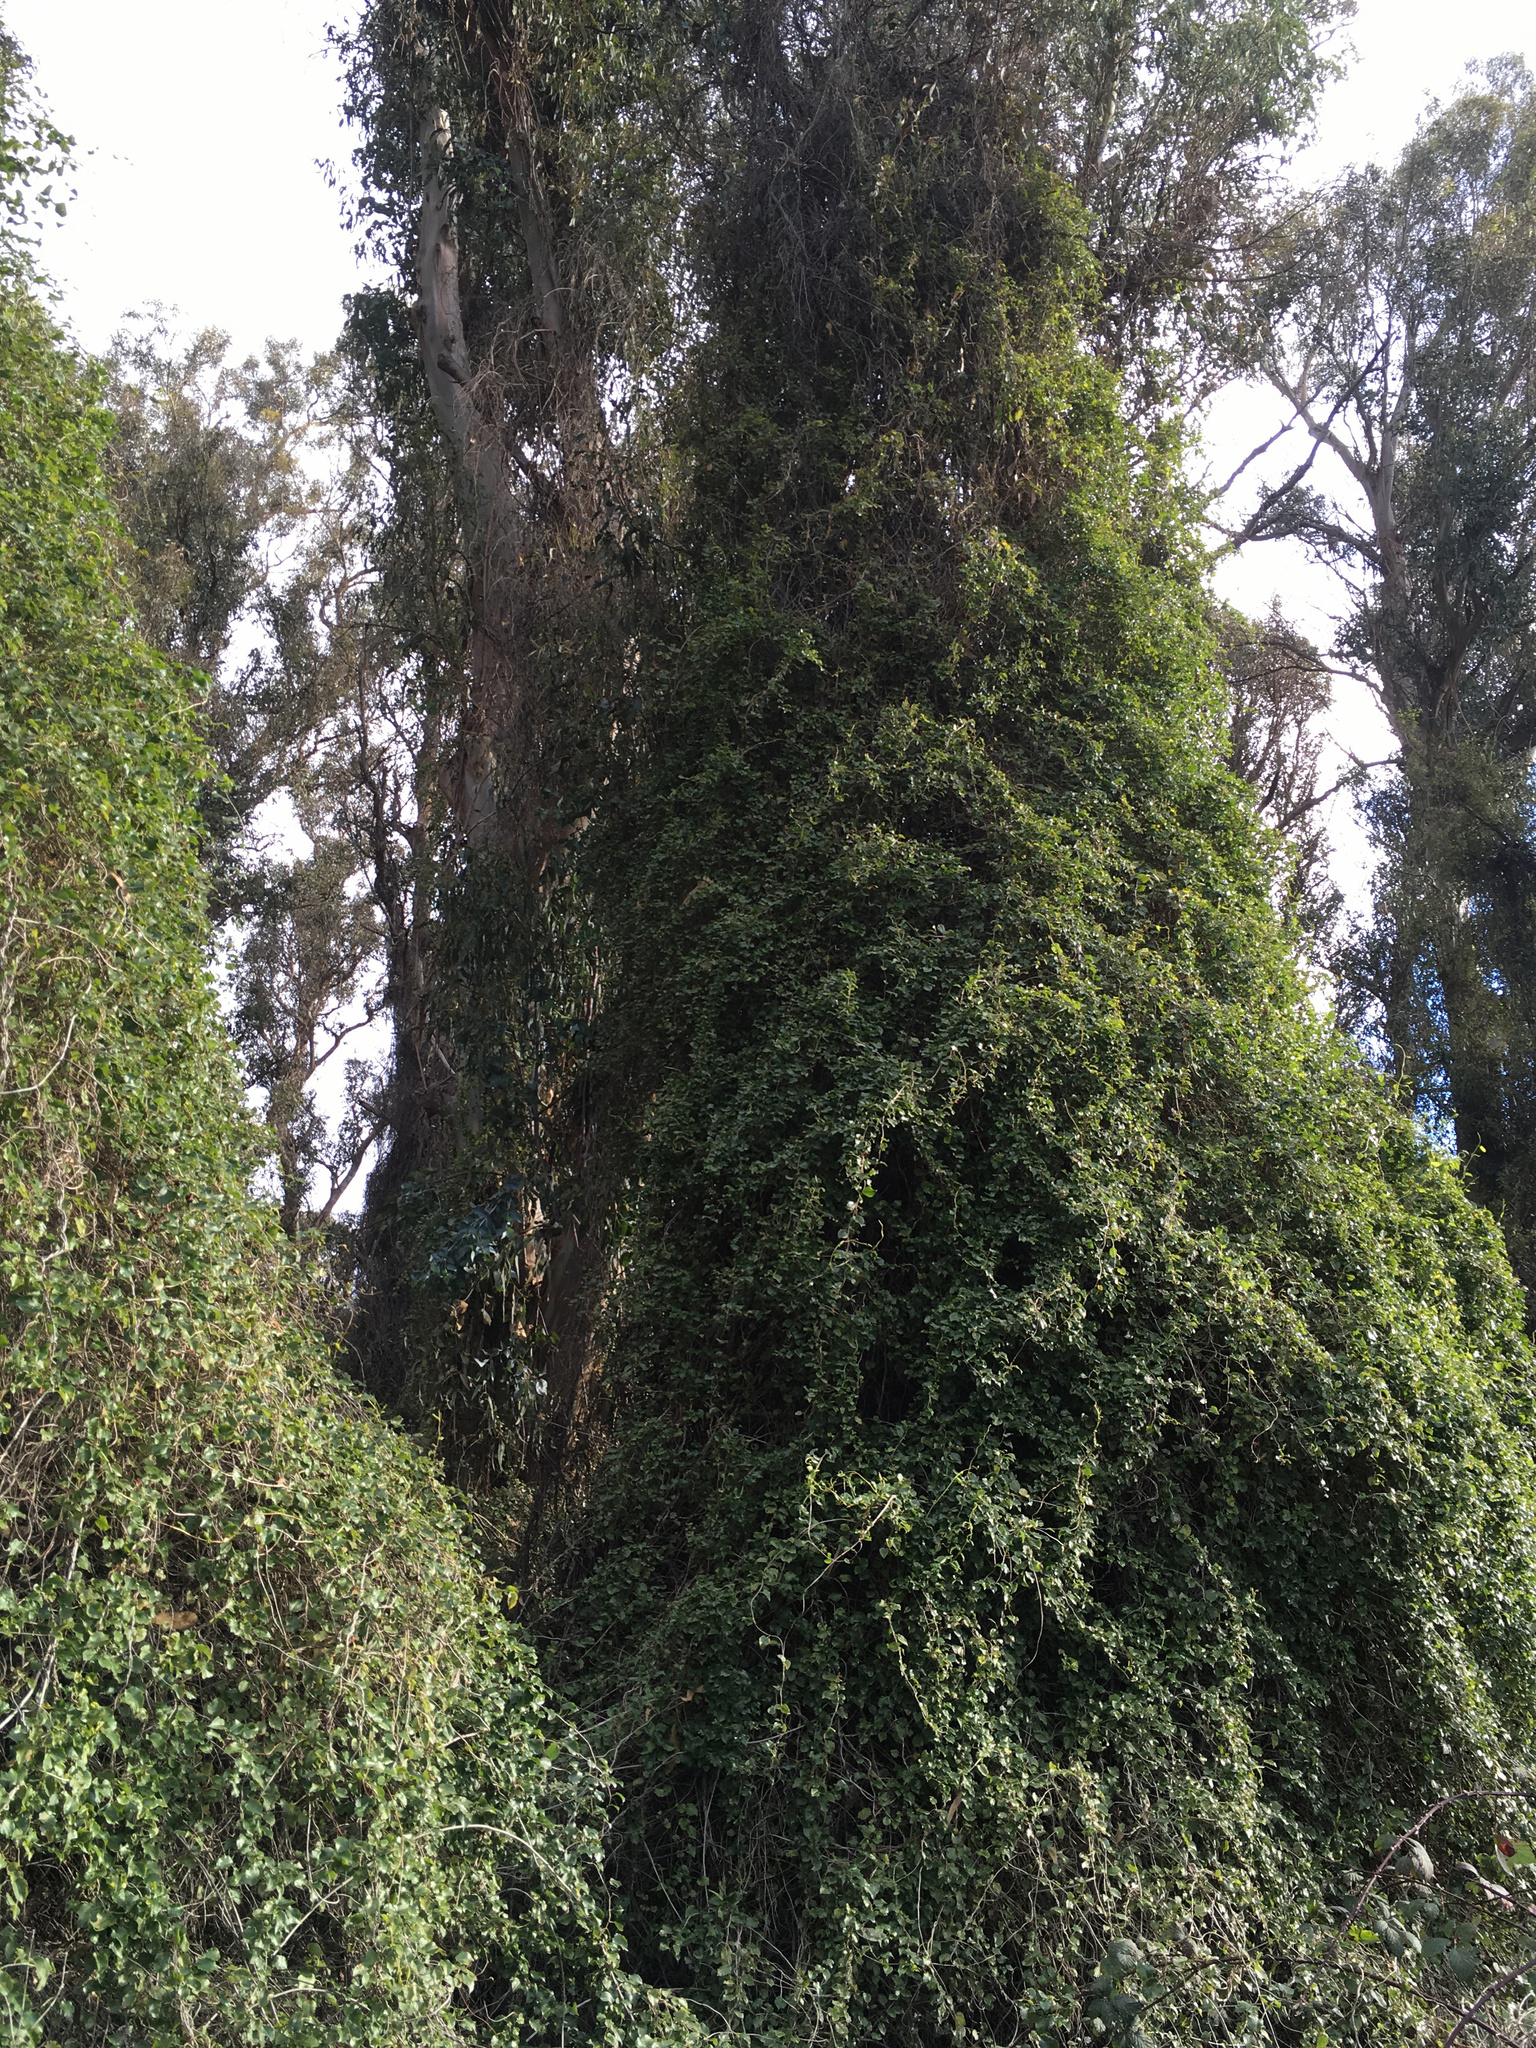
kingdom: Plantae
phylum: Tracheophyta
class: Magnoliopsida
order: Caryophyllales
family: Polygonaceae
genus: Muehlenbeckia
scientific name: Muehlenbeckia australis
